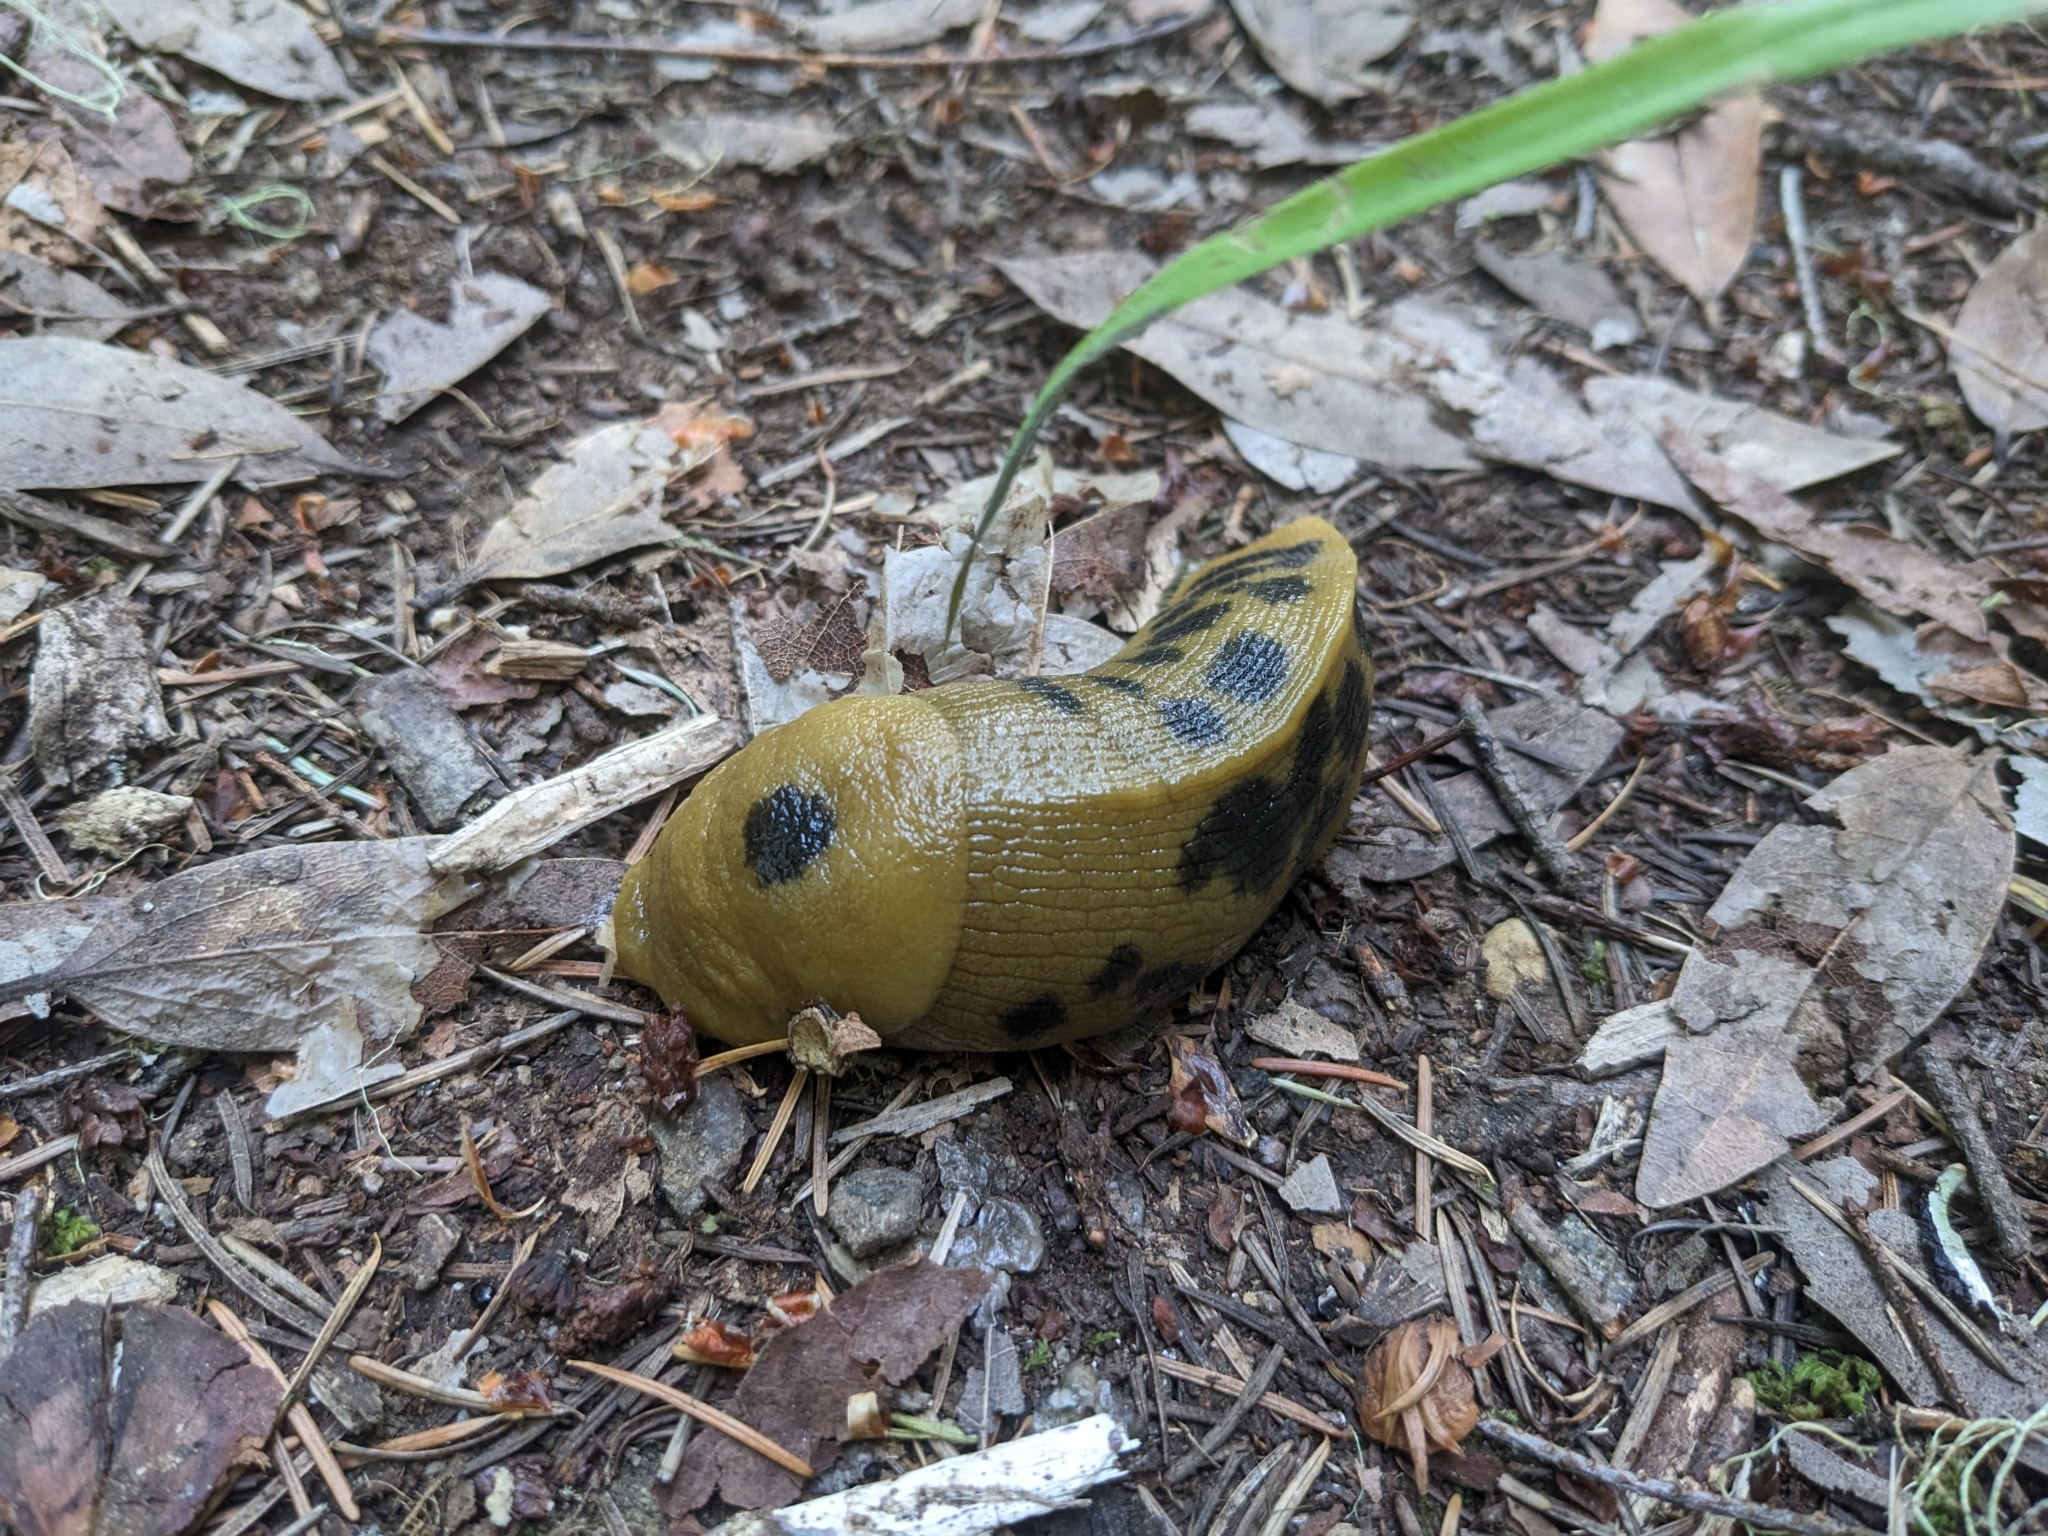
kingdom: Animalia
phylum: Mollusca
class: Gastropoda
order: Stylommatophora
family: Ariolimacidae
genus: Ariolimax
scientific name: Ariolimax buttoni
